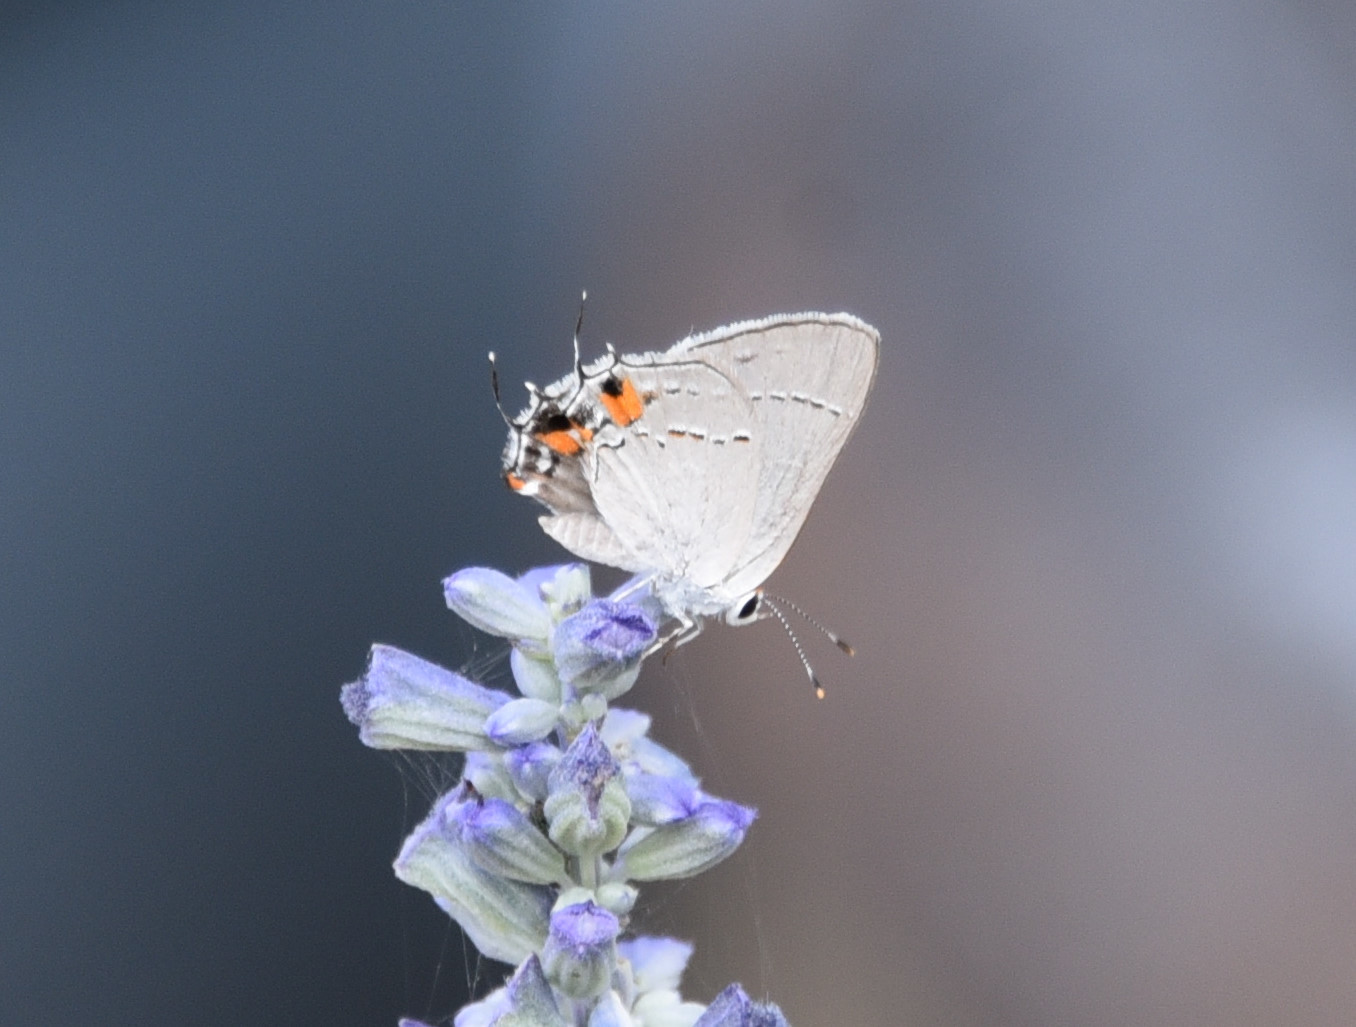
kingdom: Animalia
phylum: Arthropoda
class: Insecta
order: Lepidoptera
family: Lycaenidae
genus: Strymon
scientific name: Strymon melinus
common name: Gray hairstreak
